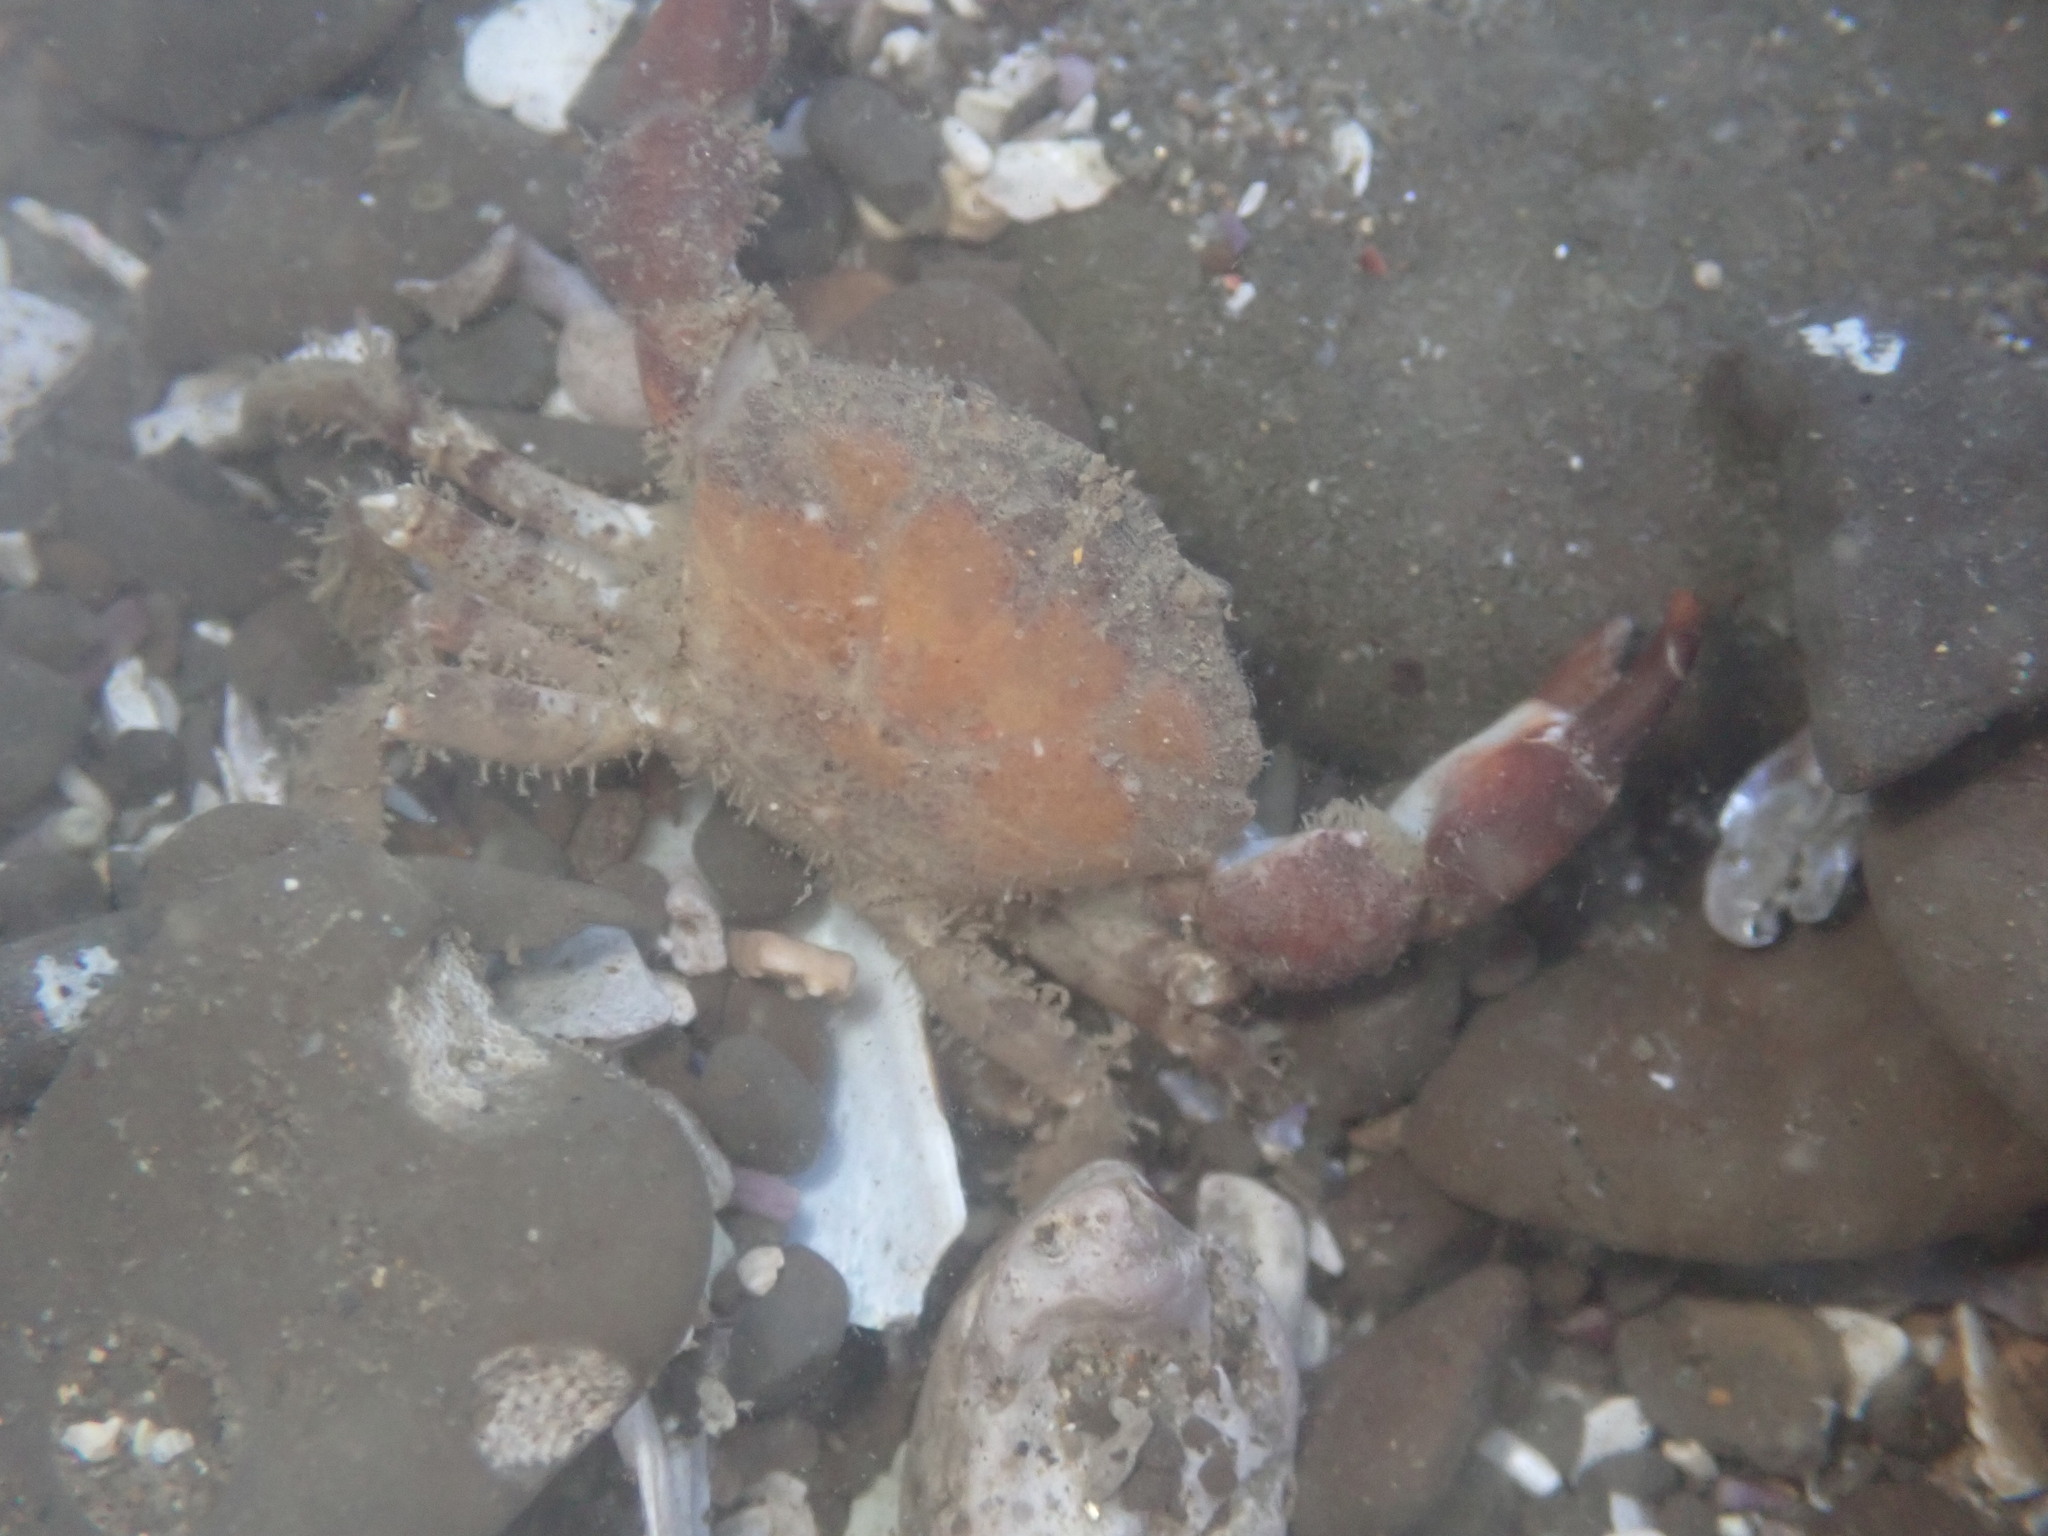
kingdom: Animalia
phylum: Arthropoda
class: Malacostraca
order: Decapoda
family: Panopeidae
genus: Lophopanopeus
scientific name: Lophopanopeus bellus
